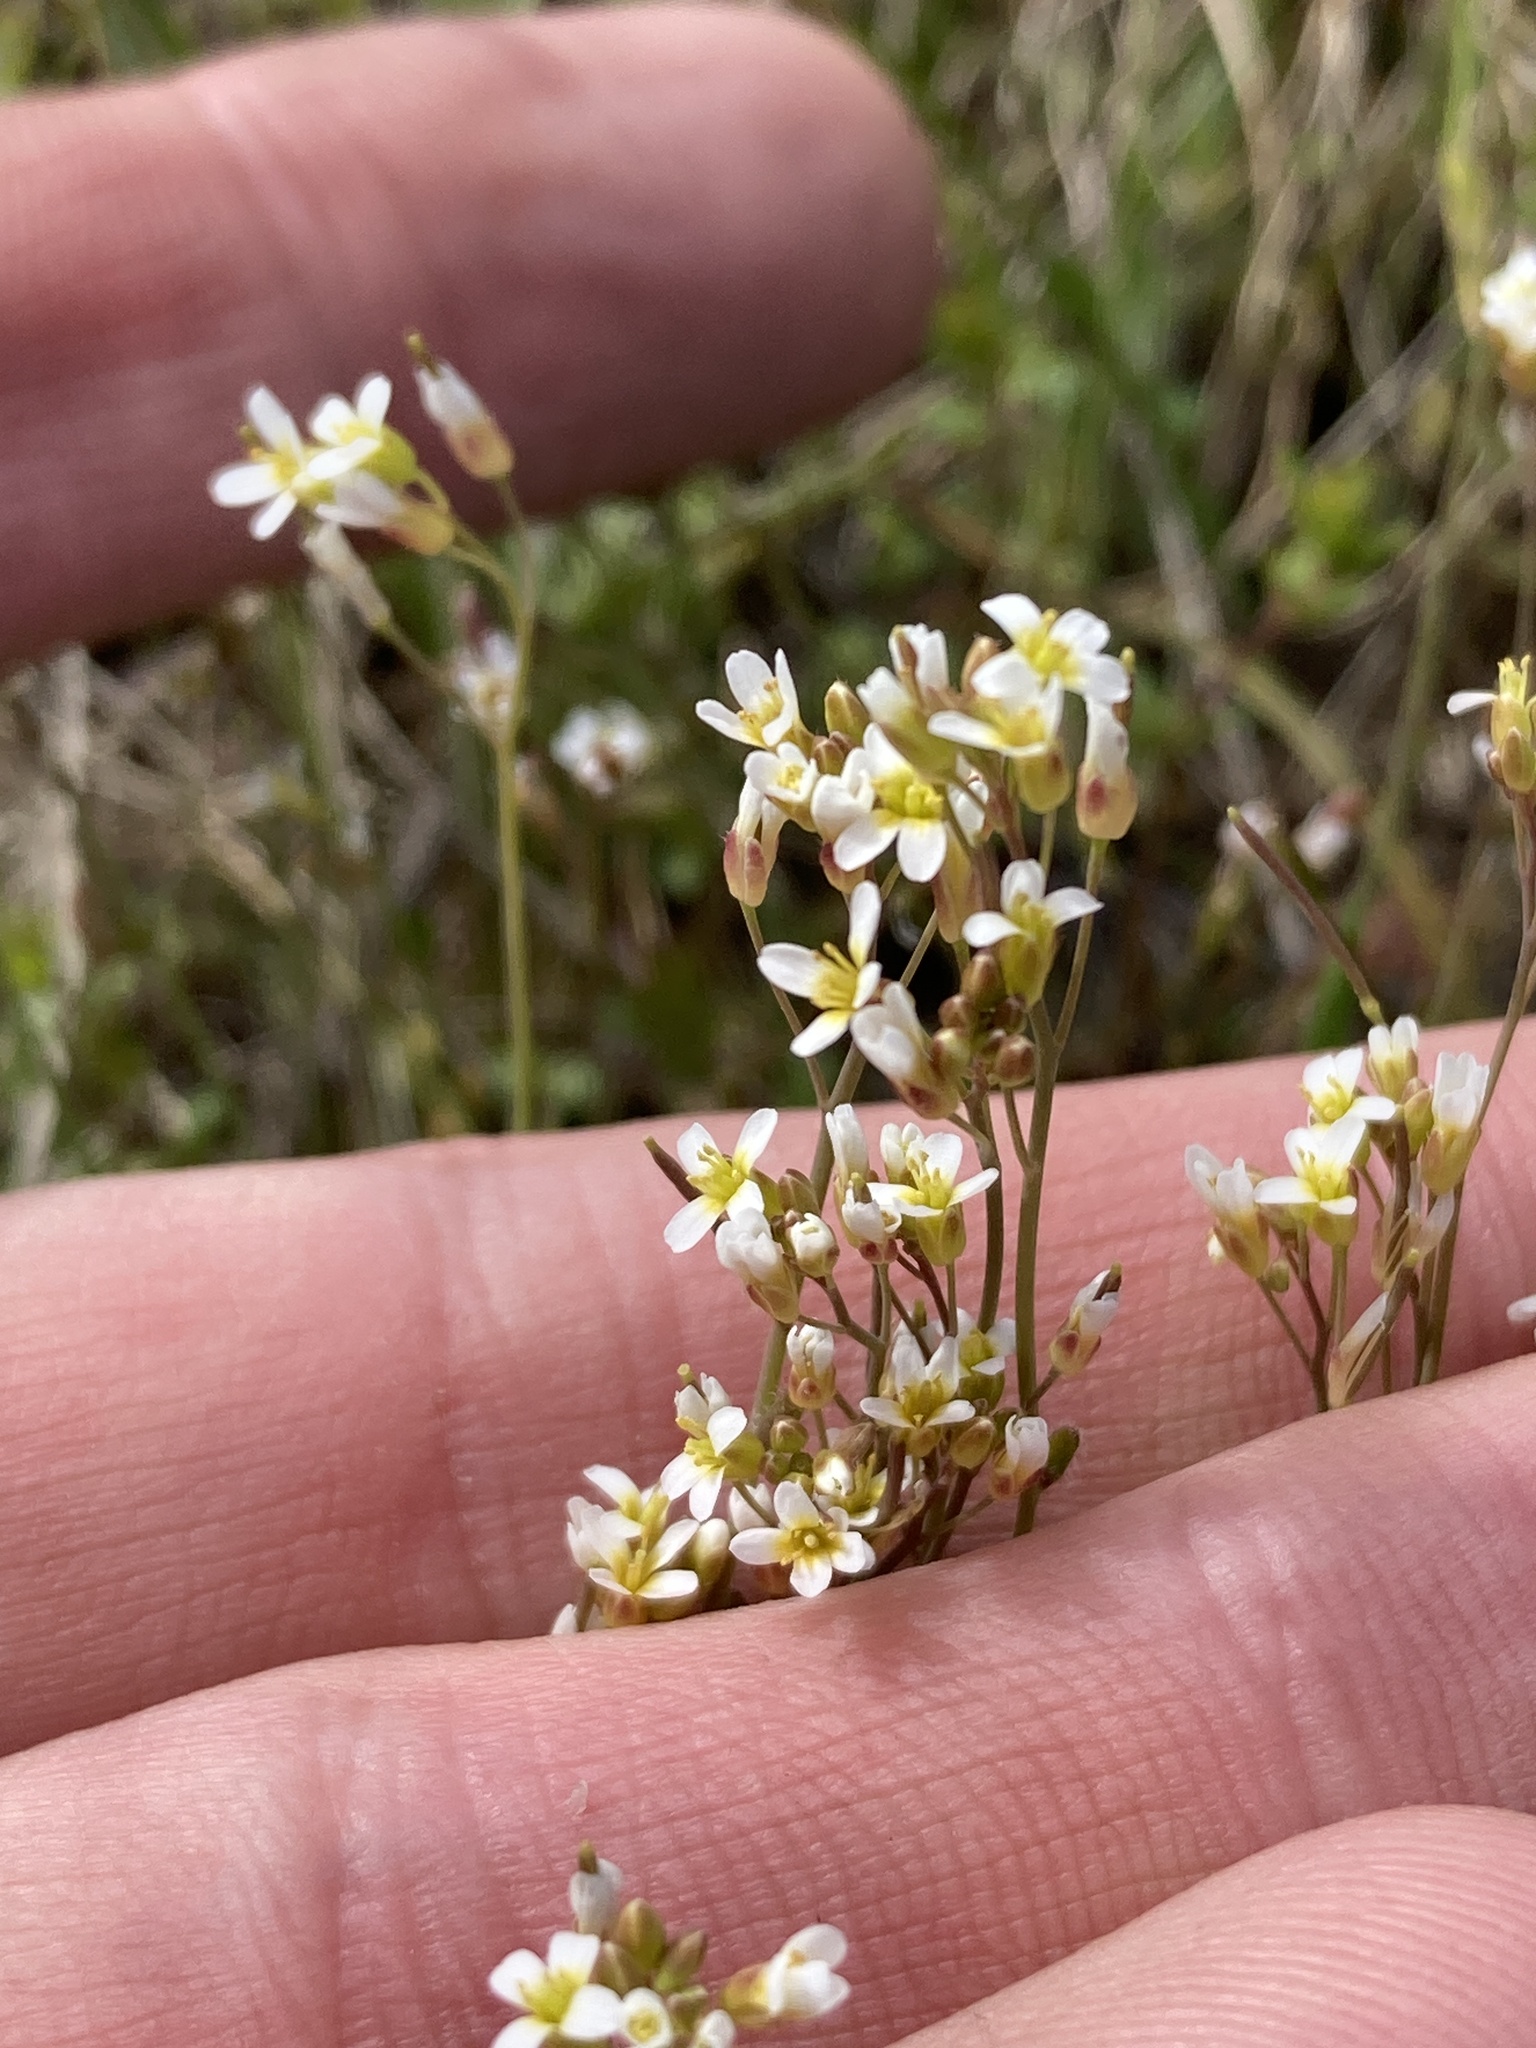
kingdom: Plantae
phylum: Tracheophyta
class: Magnoliopsida
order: Brassicales
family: Brassicaceae
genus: Arabidopsis
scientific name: Arabidopsis thaliana
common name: Thale cress
